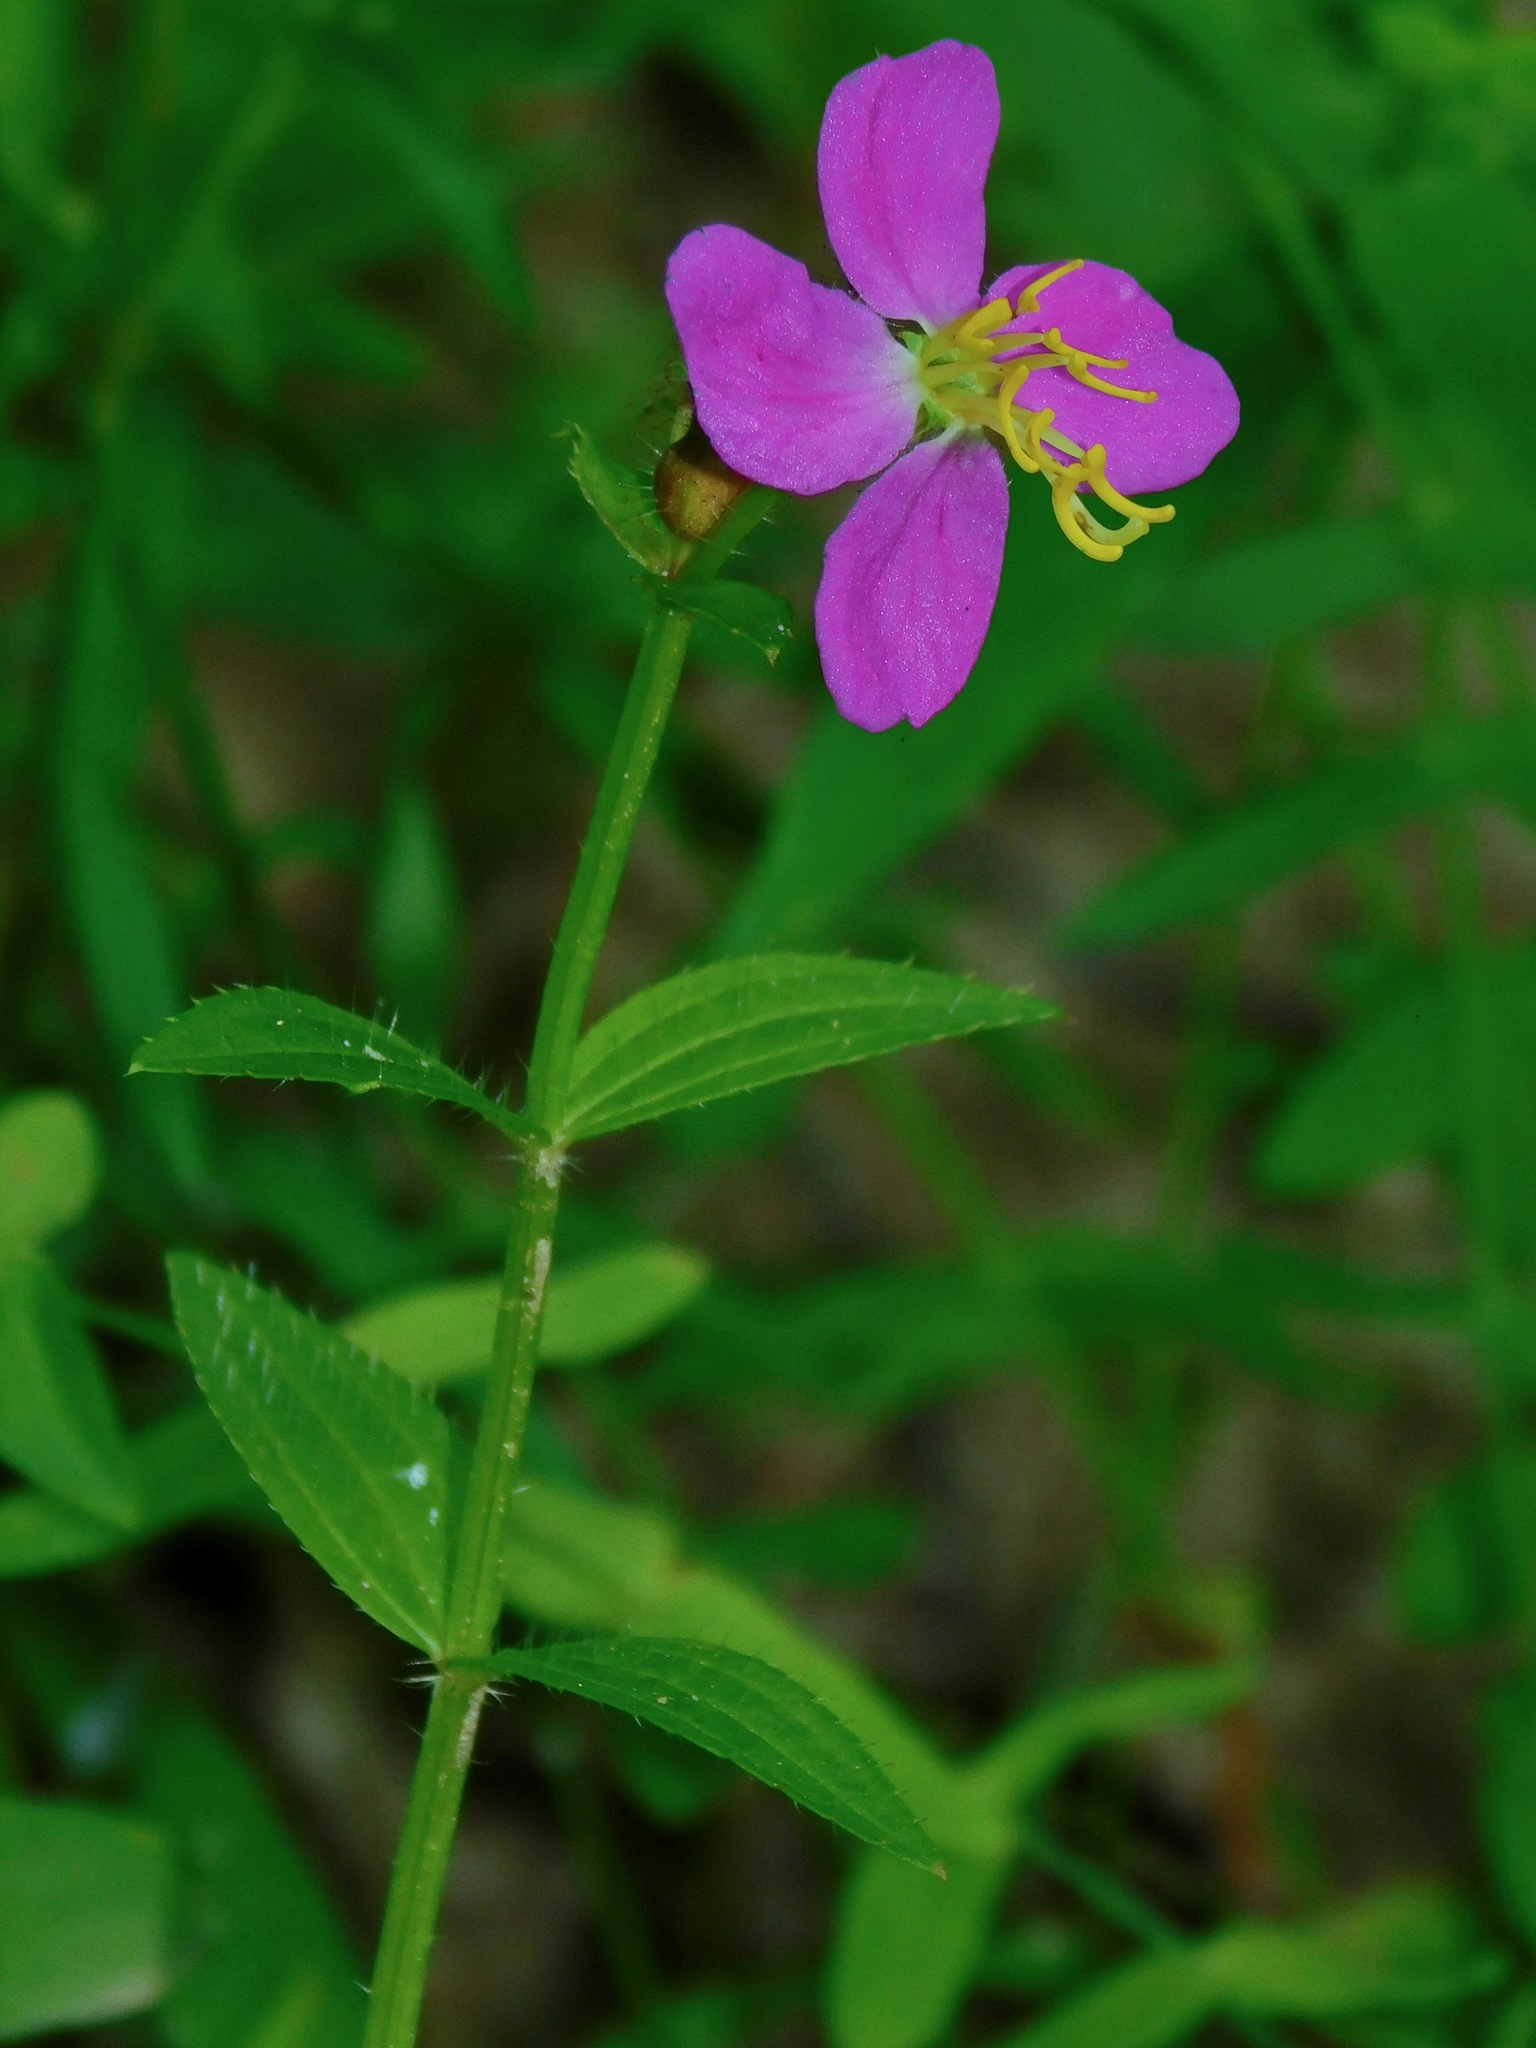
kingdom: Plantae
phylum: Tracheophyta
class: Magnoliopsida
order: Myrtales
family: Melastomataceae
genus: Rhexia
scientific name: Rhexia mariana
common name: Dull meadow-pitcher
